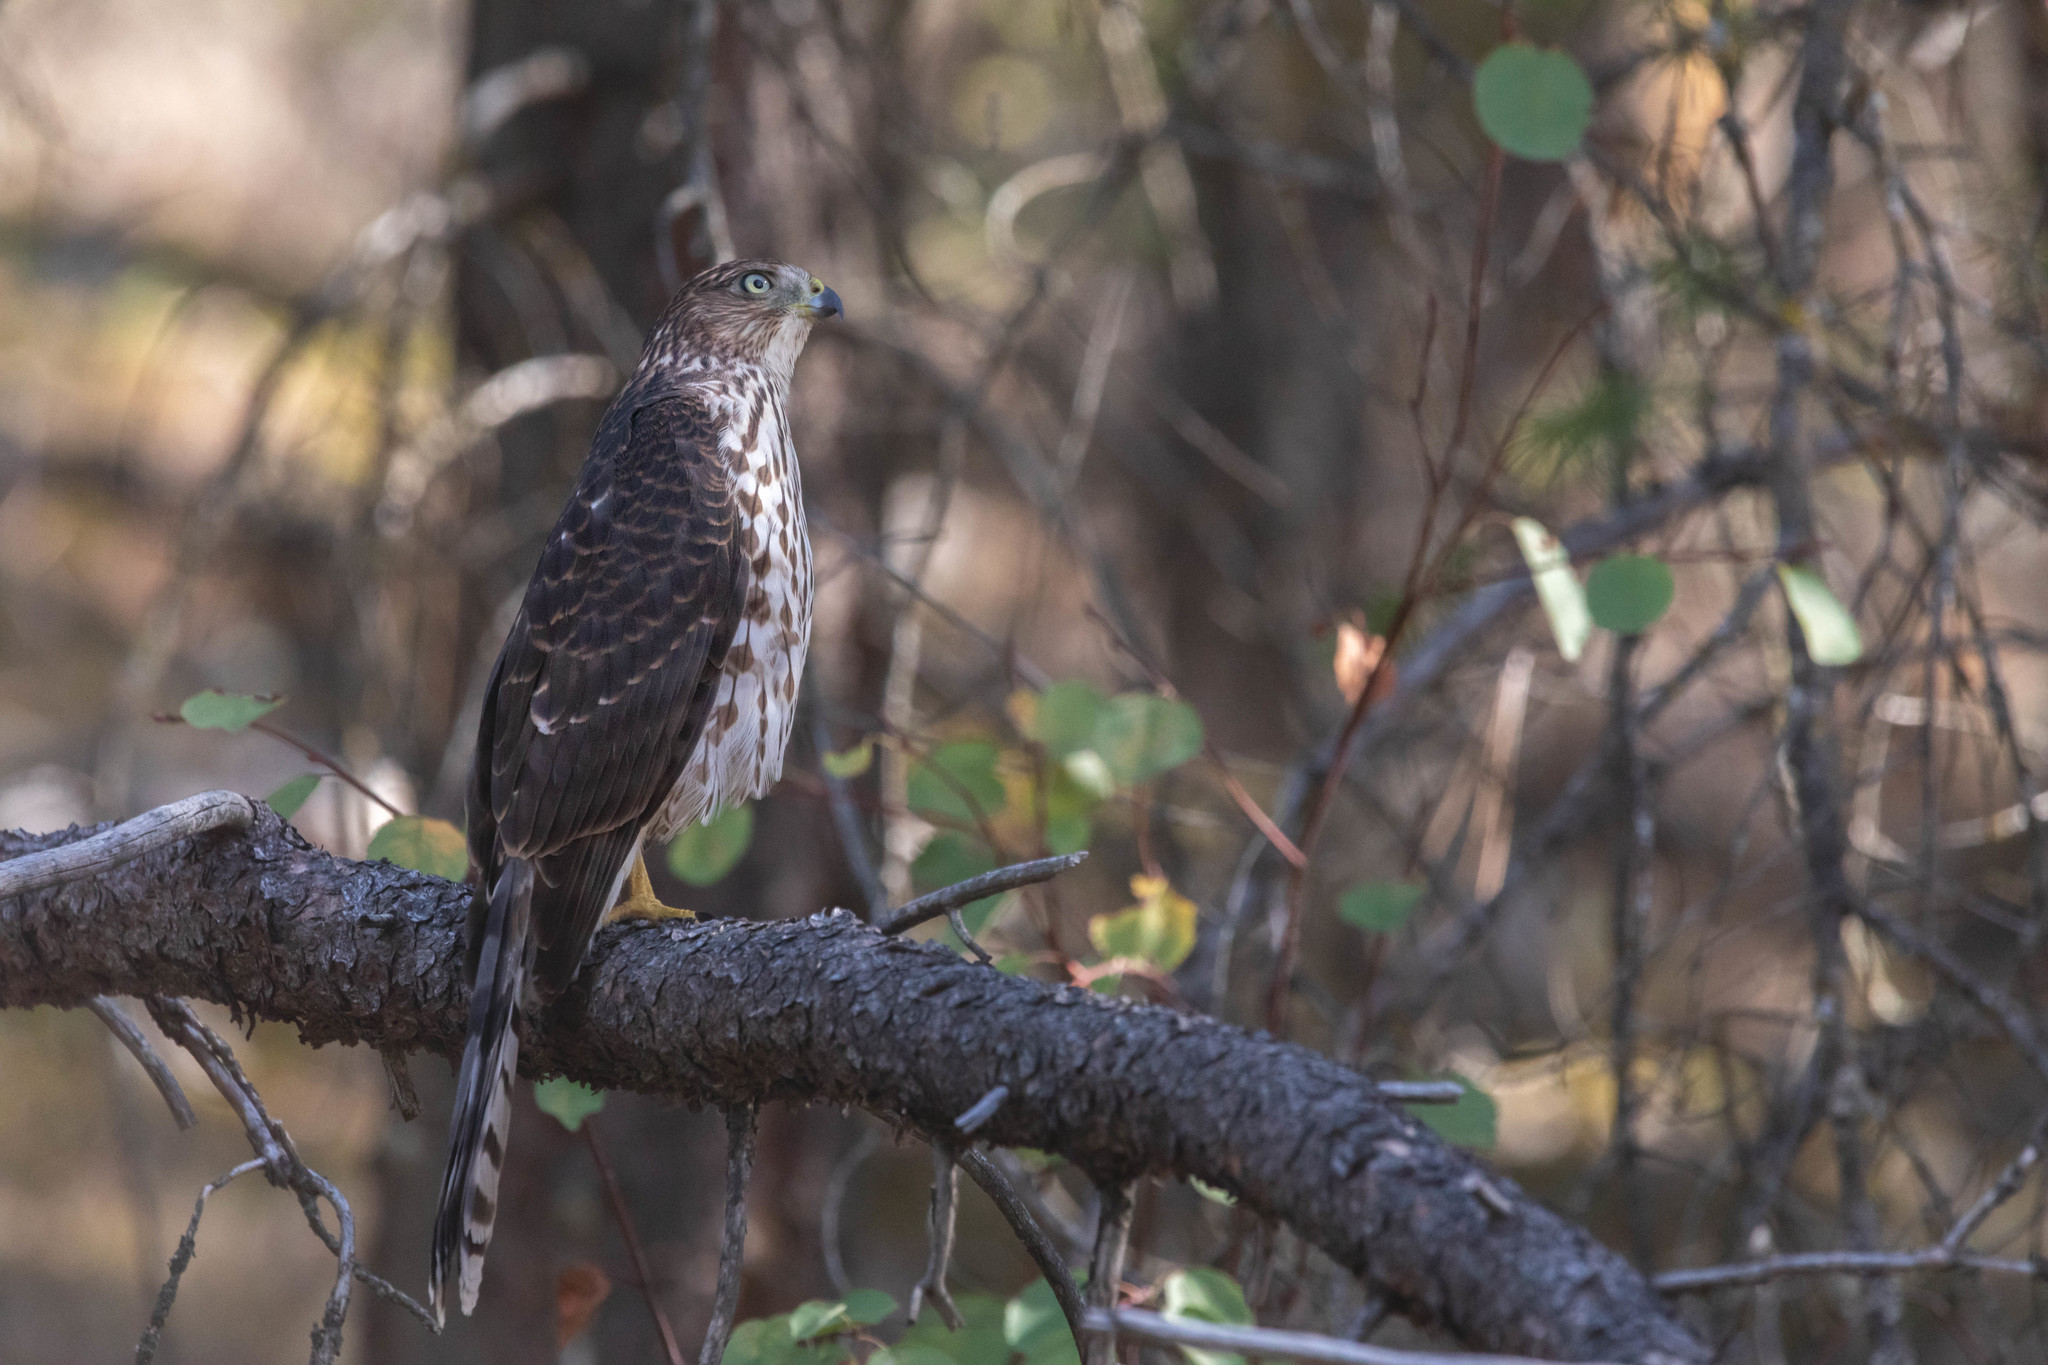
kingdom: Animalia
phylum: Chordata
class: Aves
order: Accipitriformes
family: Accipitridae
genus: Accipiter
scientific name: Accipiter cooperii
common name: Cooper's hawk
